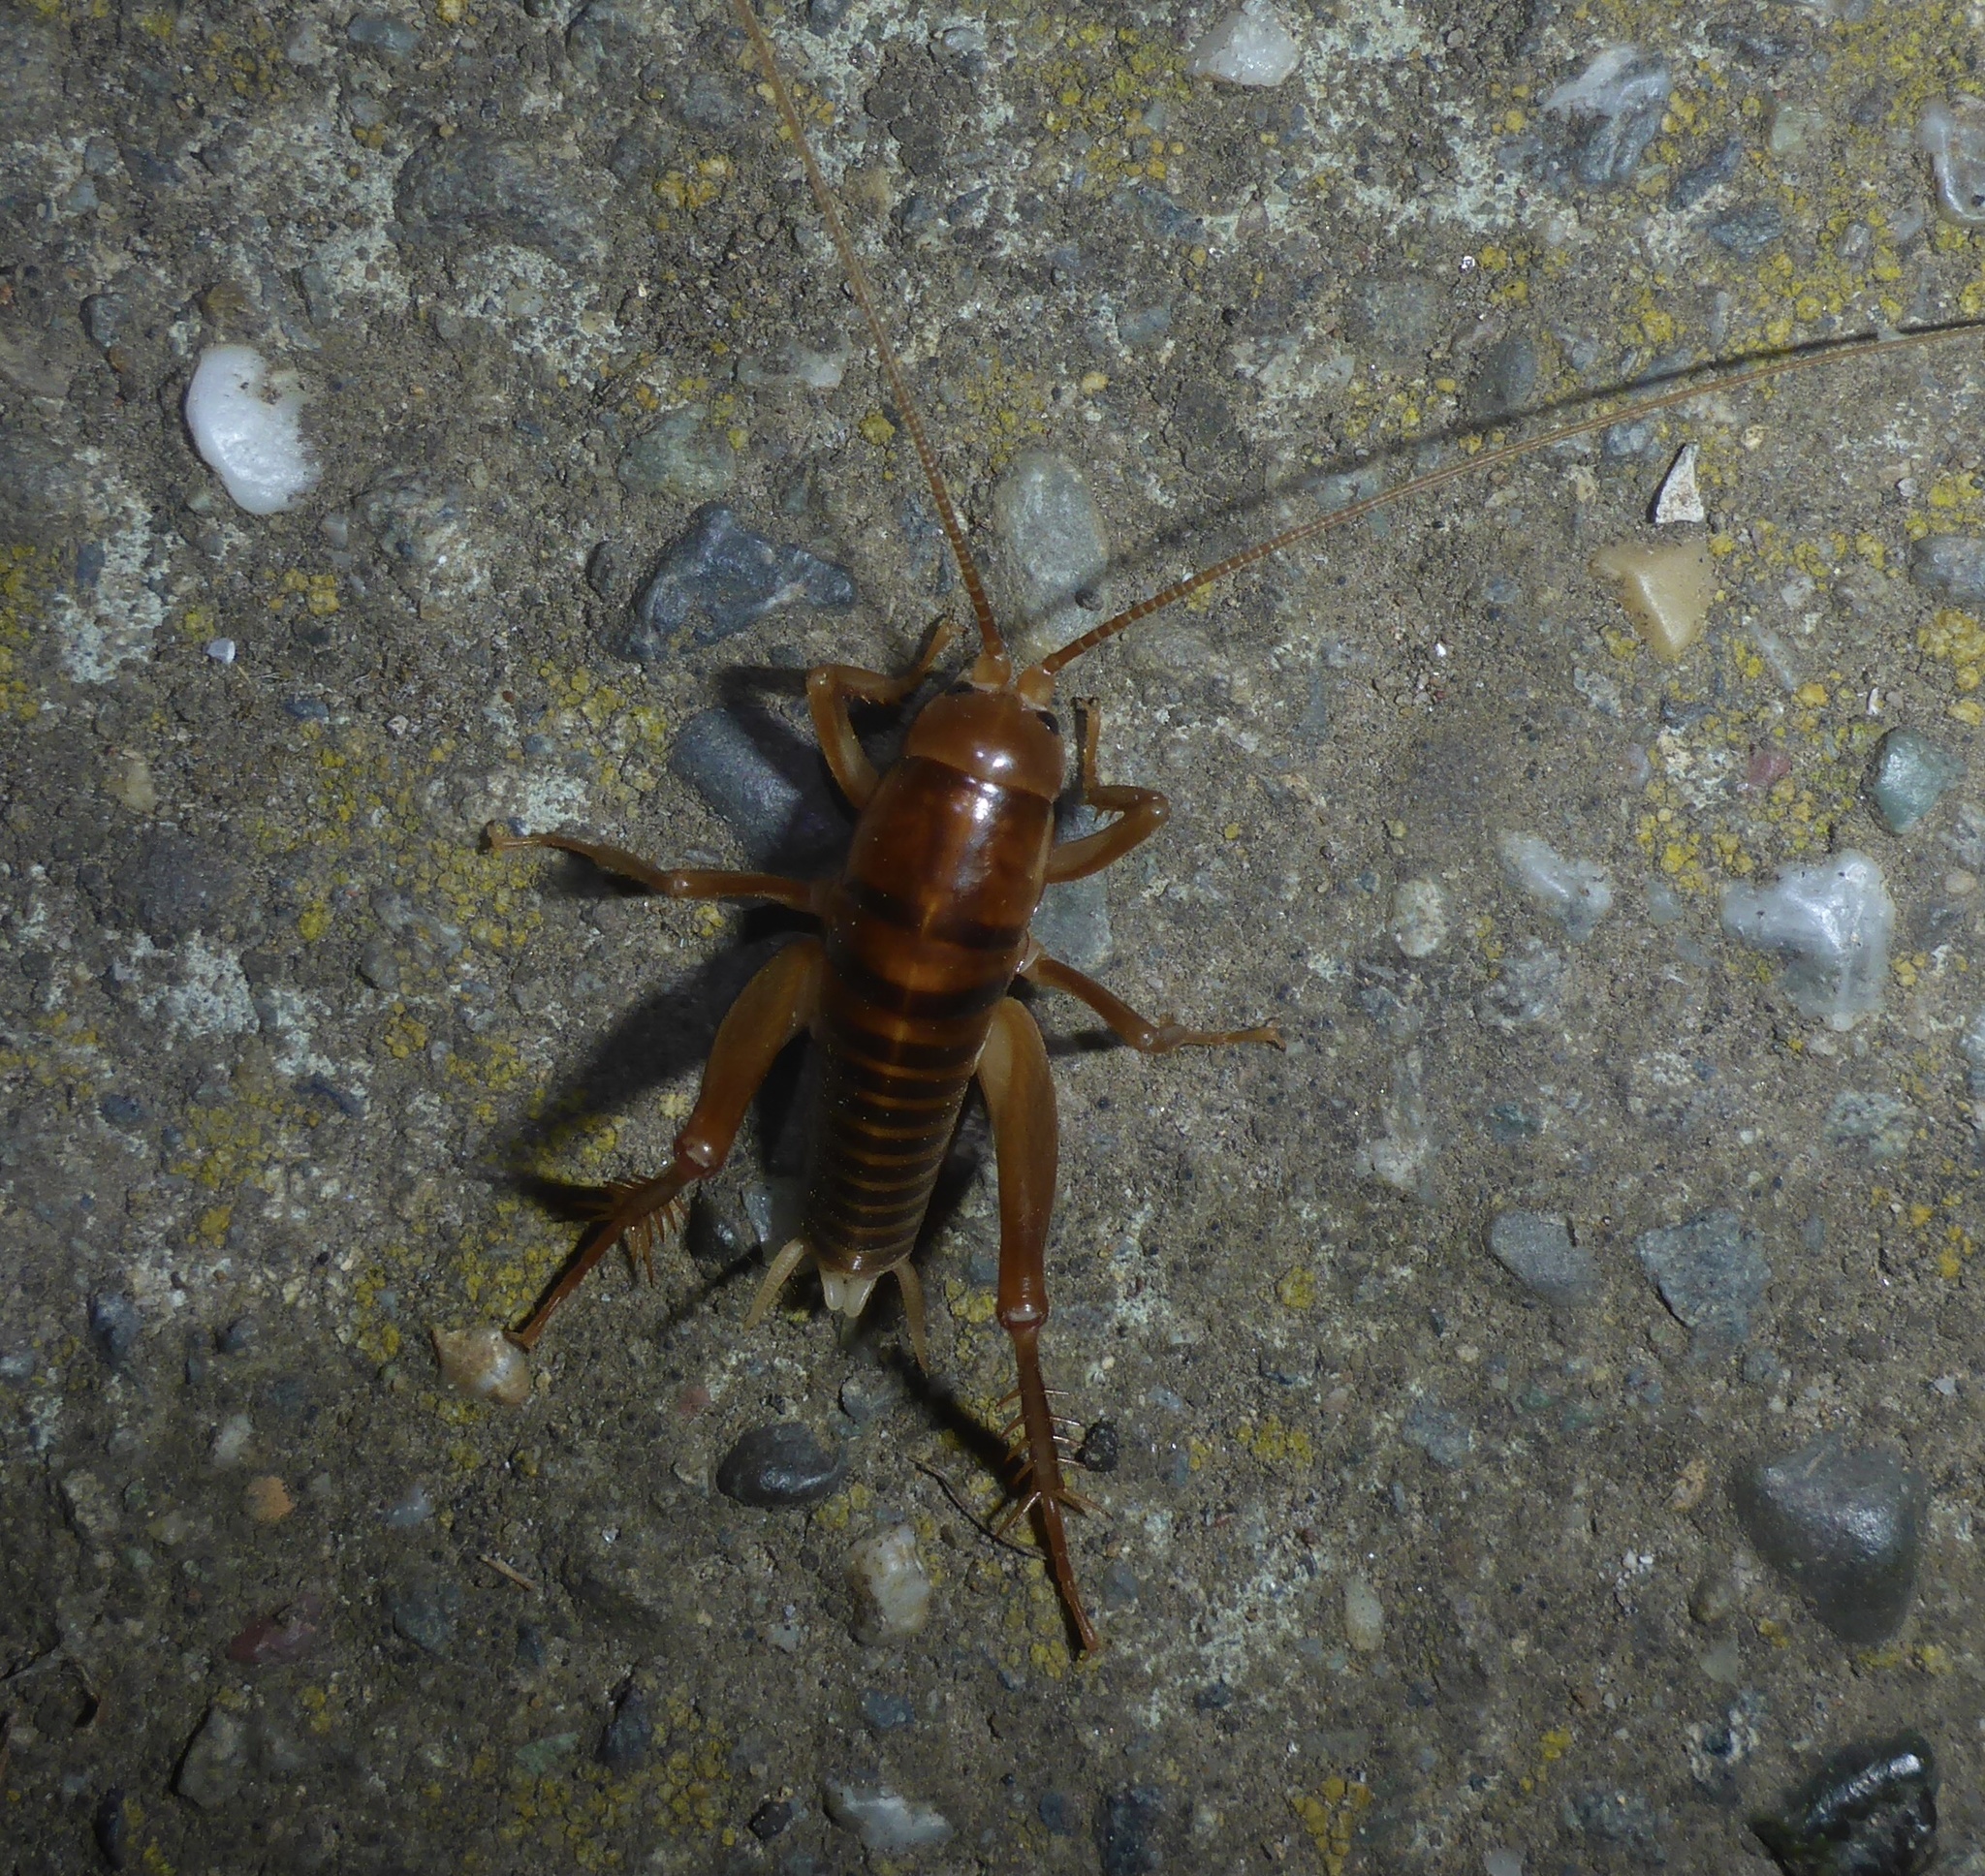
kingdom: Animalia
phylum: Arthropoda
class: Insecta
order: Orthoptera
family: Rhaphidophoridae
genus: Ceuthophilus
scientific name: Ceuthophilus californianus
